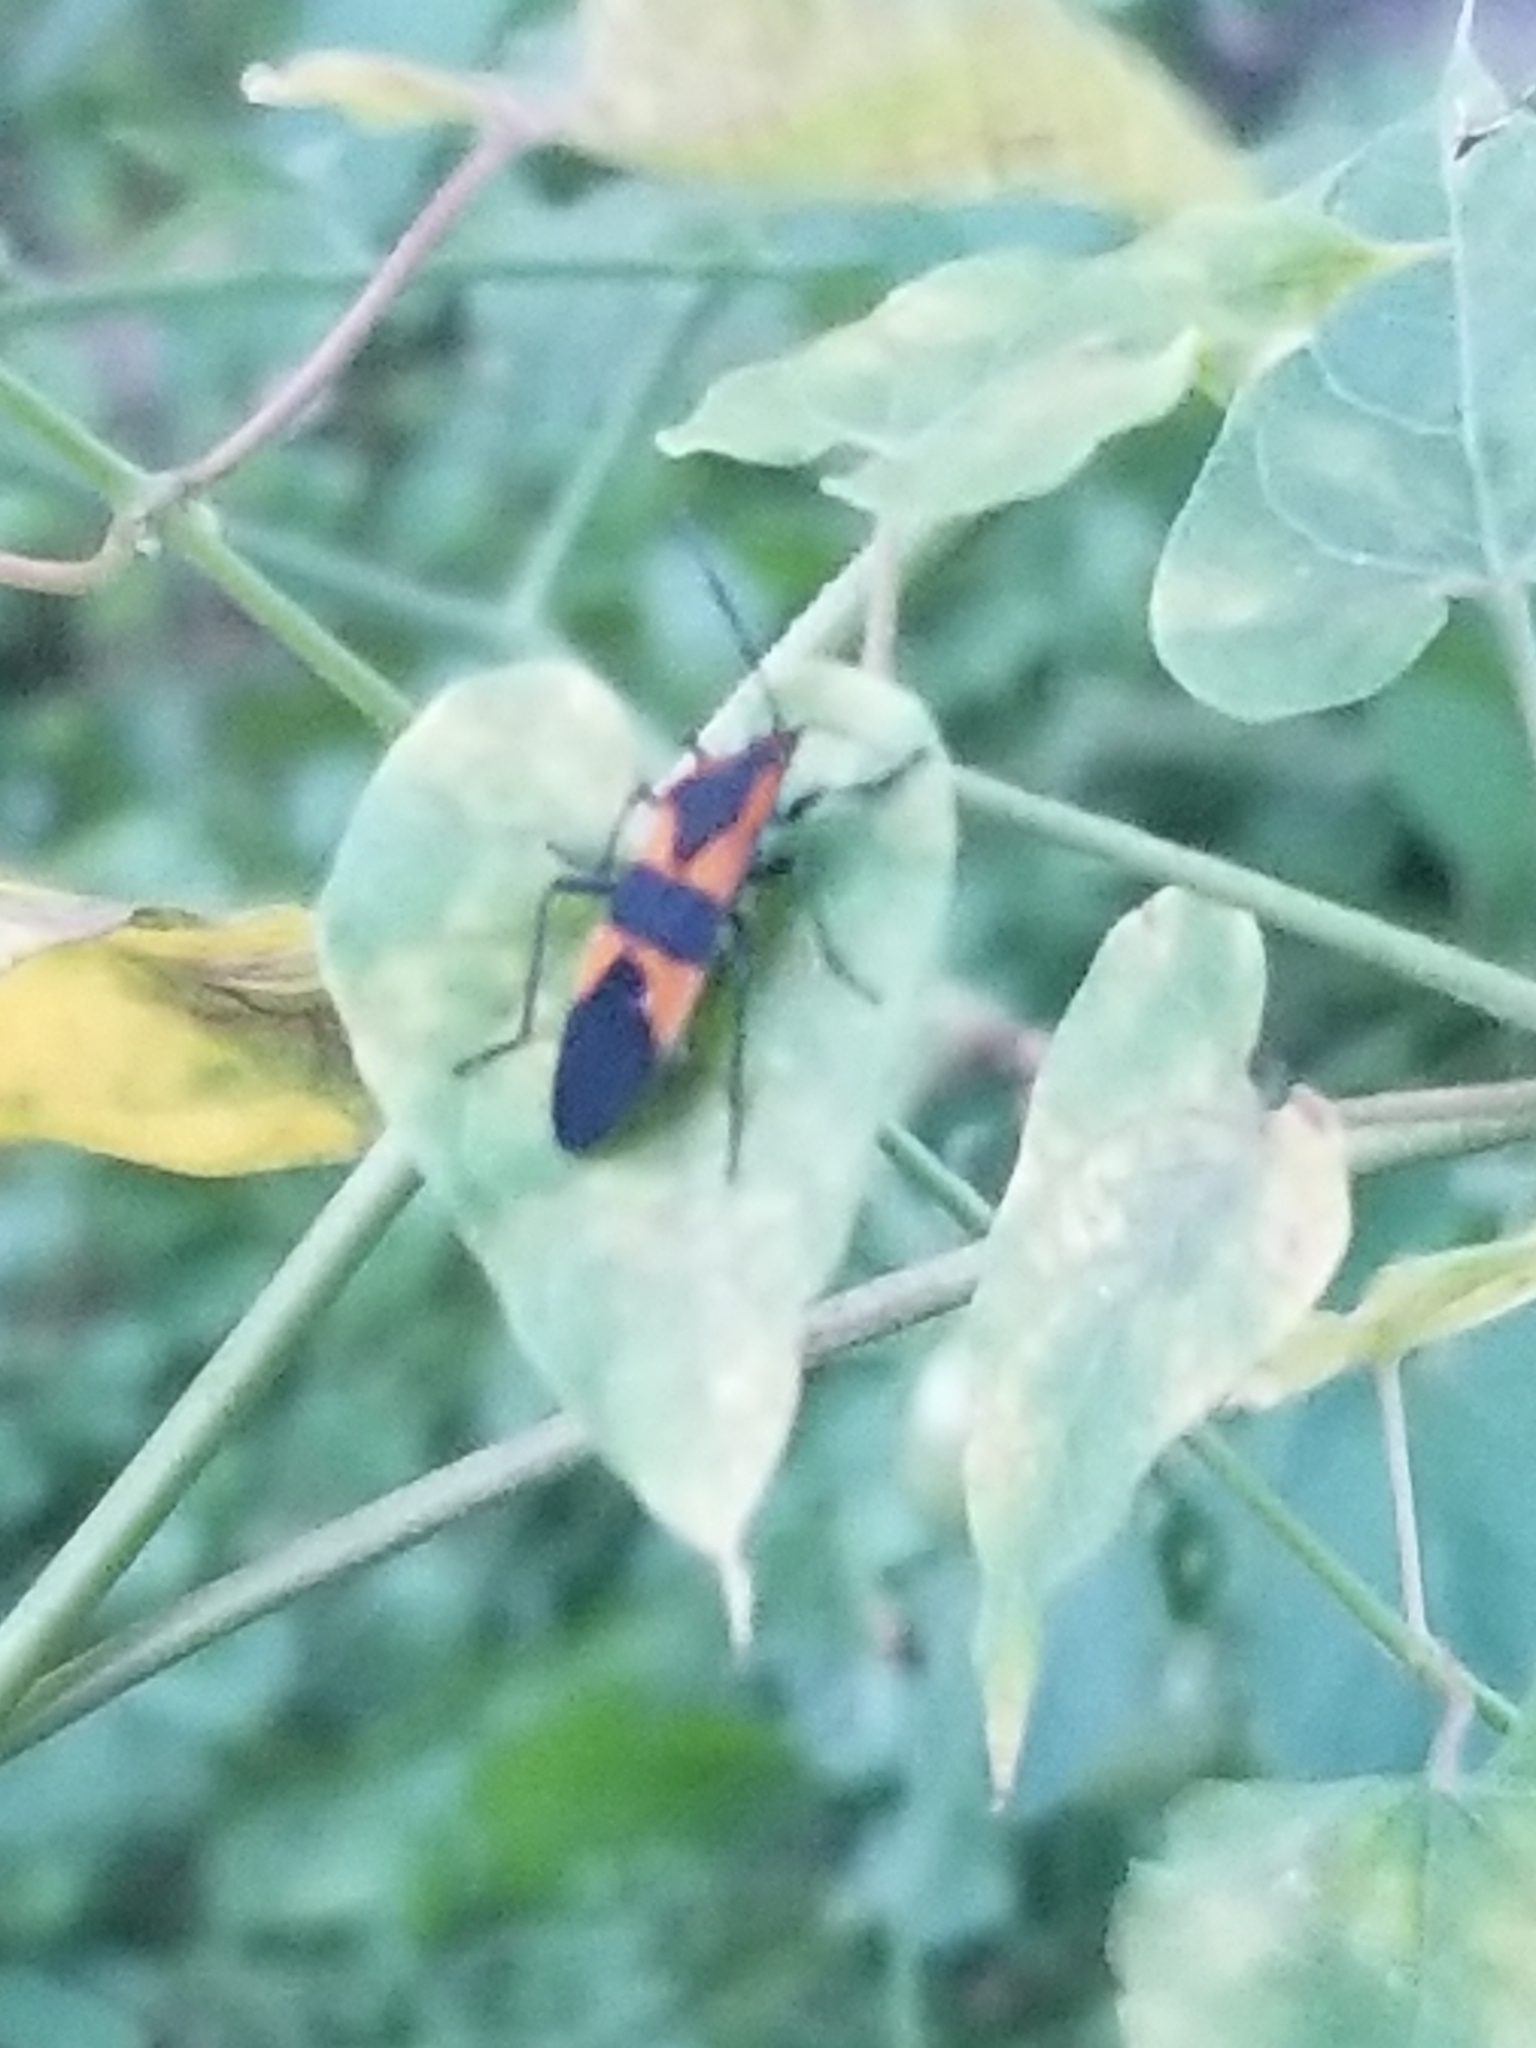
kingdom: Animalia
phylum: Arthropoda
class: Insecta
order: Hemiptera
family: Lygaeidae
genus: Oncopeltus
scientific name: Oncopeltus fasciatus
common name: Large milkweed bug
